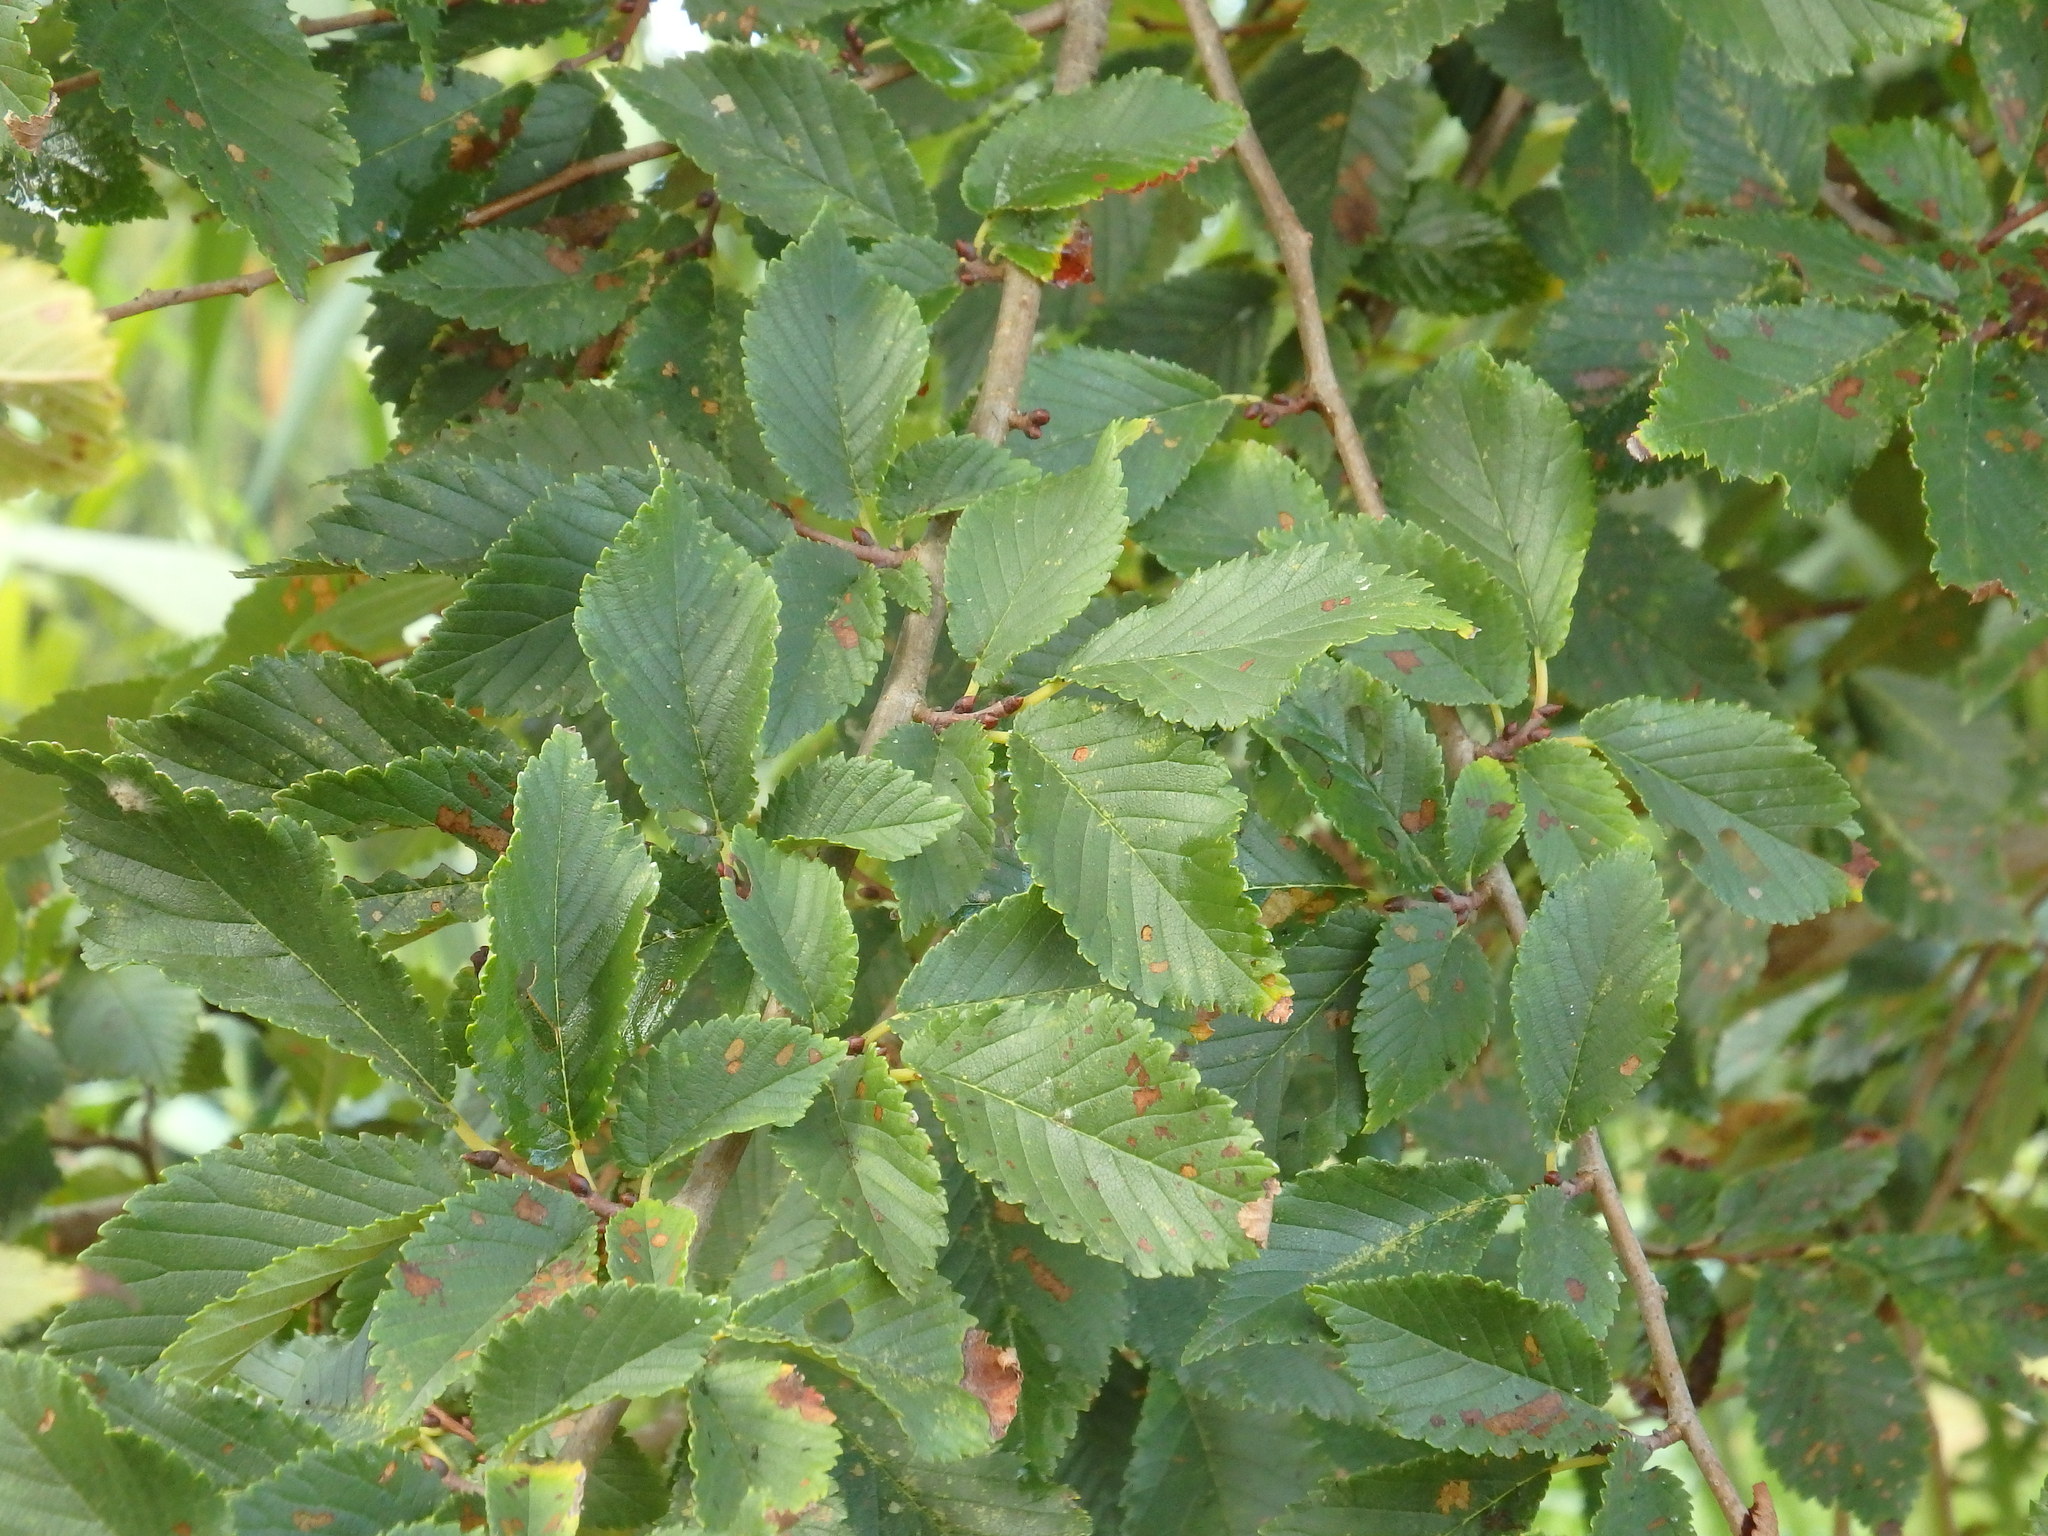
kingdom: Plantae
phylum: Tracheophyta
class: Magnoliopsida
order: Rosales
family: Ulmaceae
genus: Ulmus
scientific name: Ulmus minor
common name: Small-leaved elm
